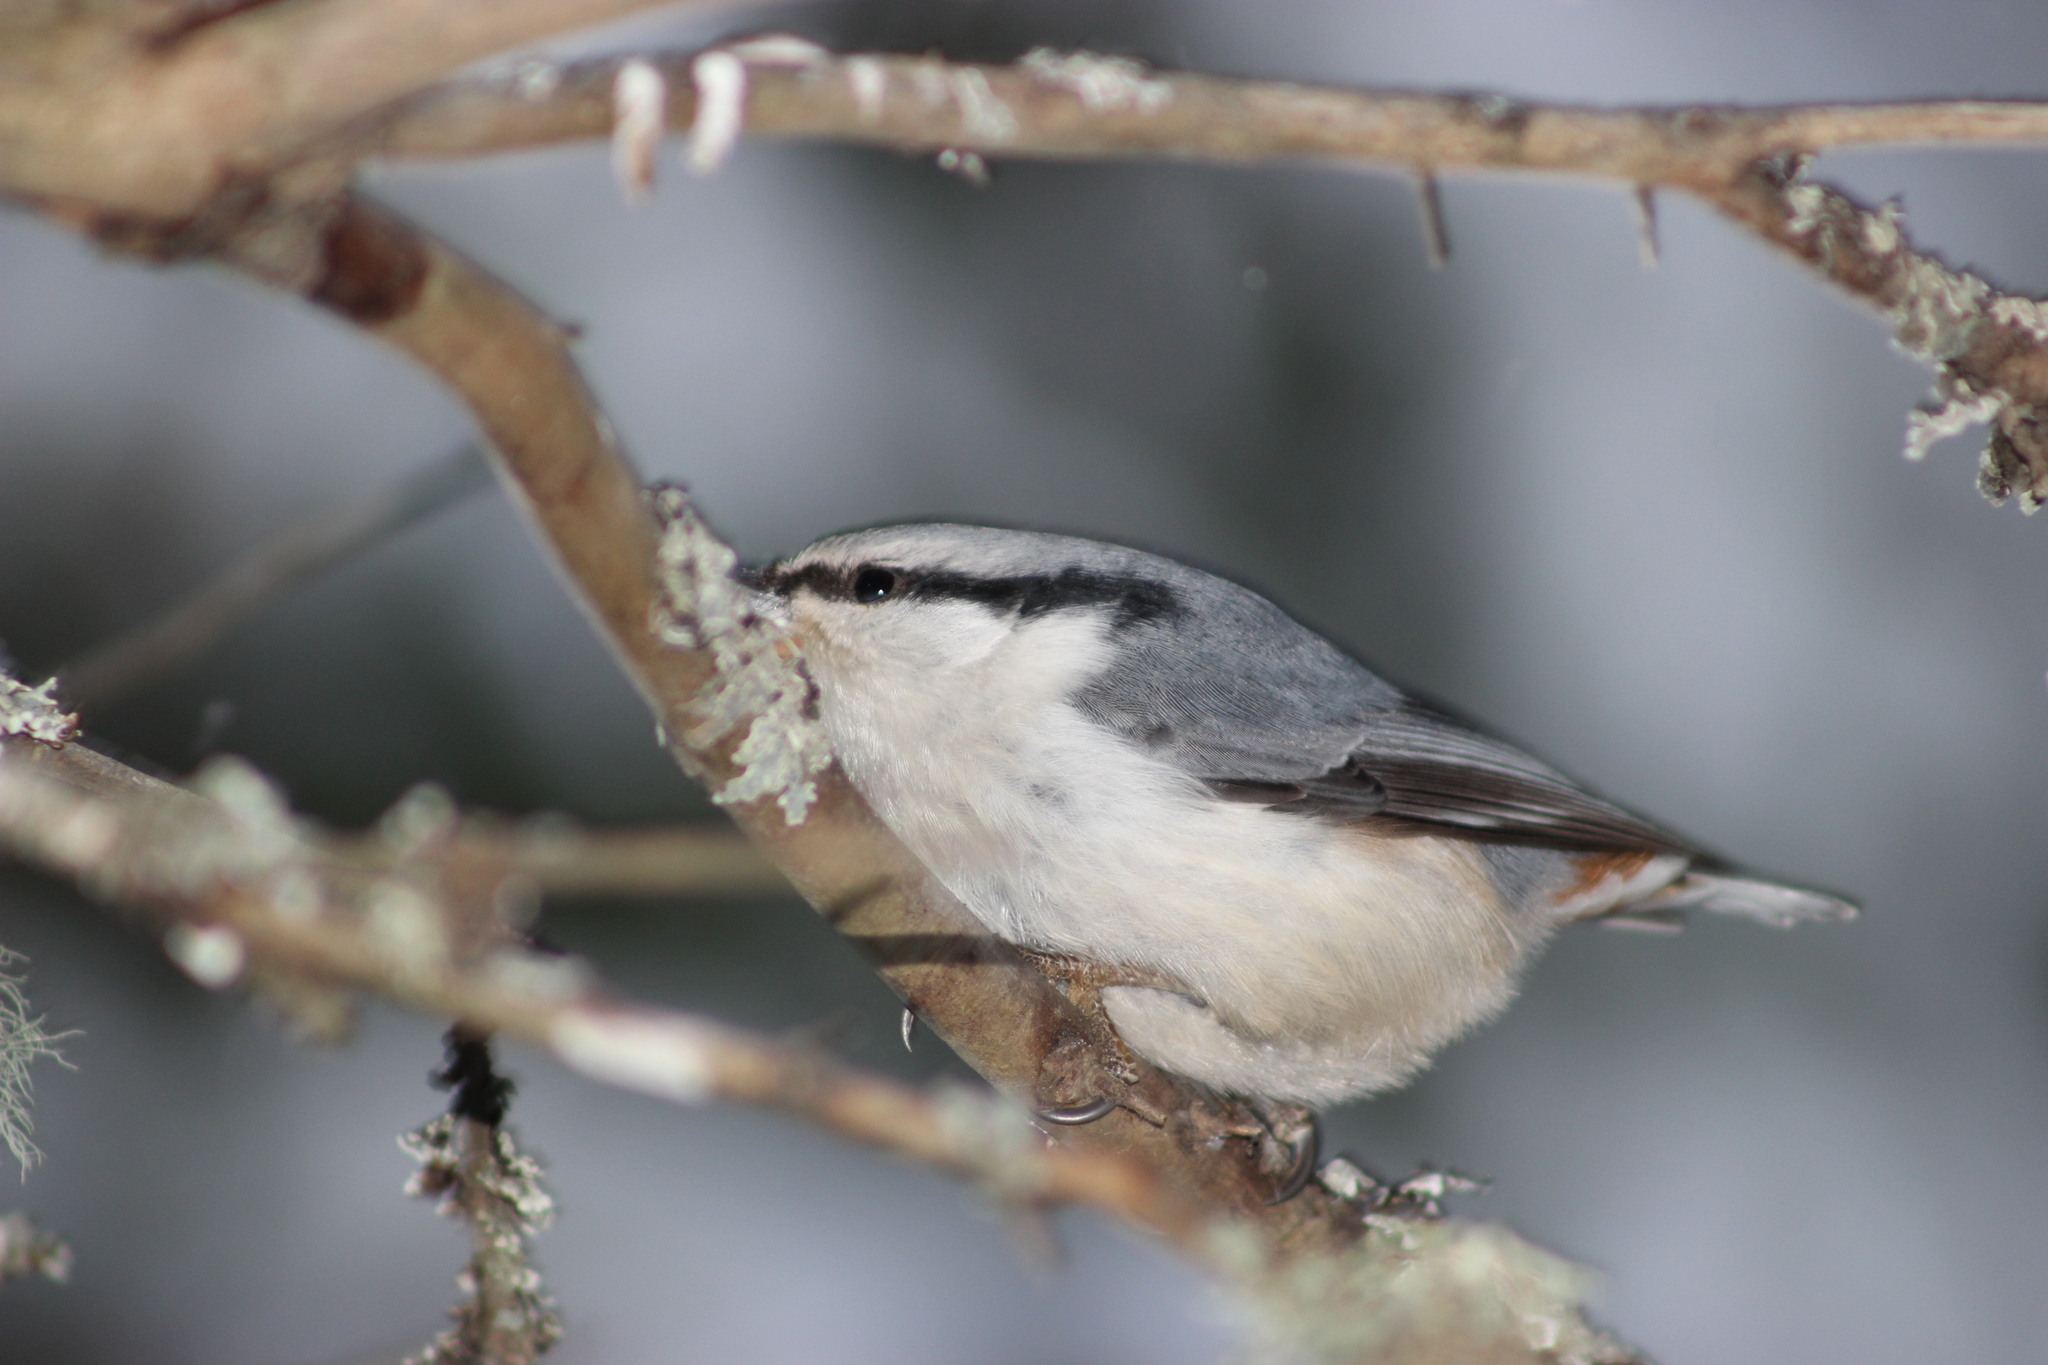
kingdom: Animalia
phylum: Chordata
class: Aves
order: Passeriformes
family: Sittidae
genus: Sitta
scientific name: Sitta europaea
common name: Eurasian nuthatch
